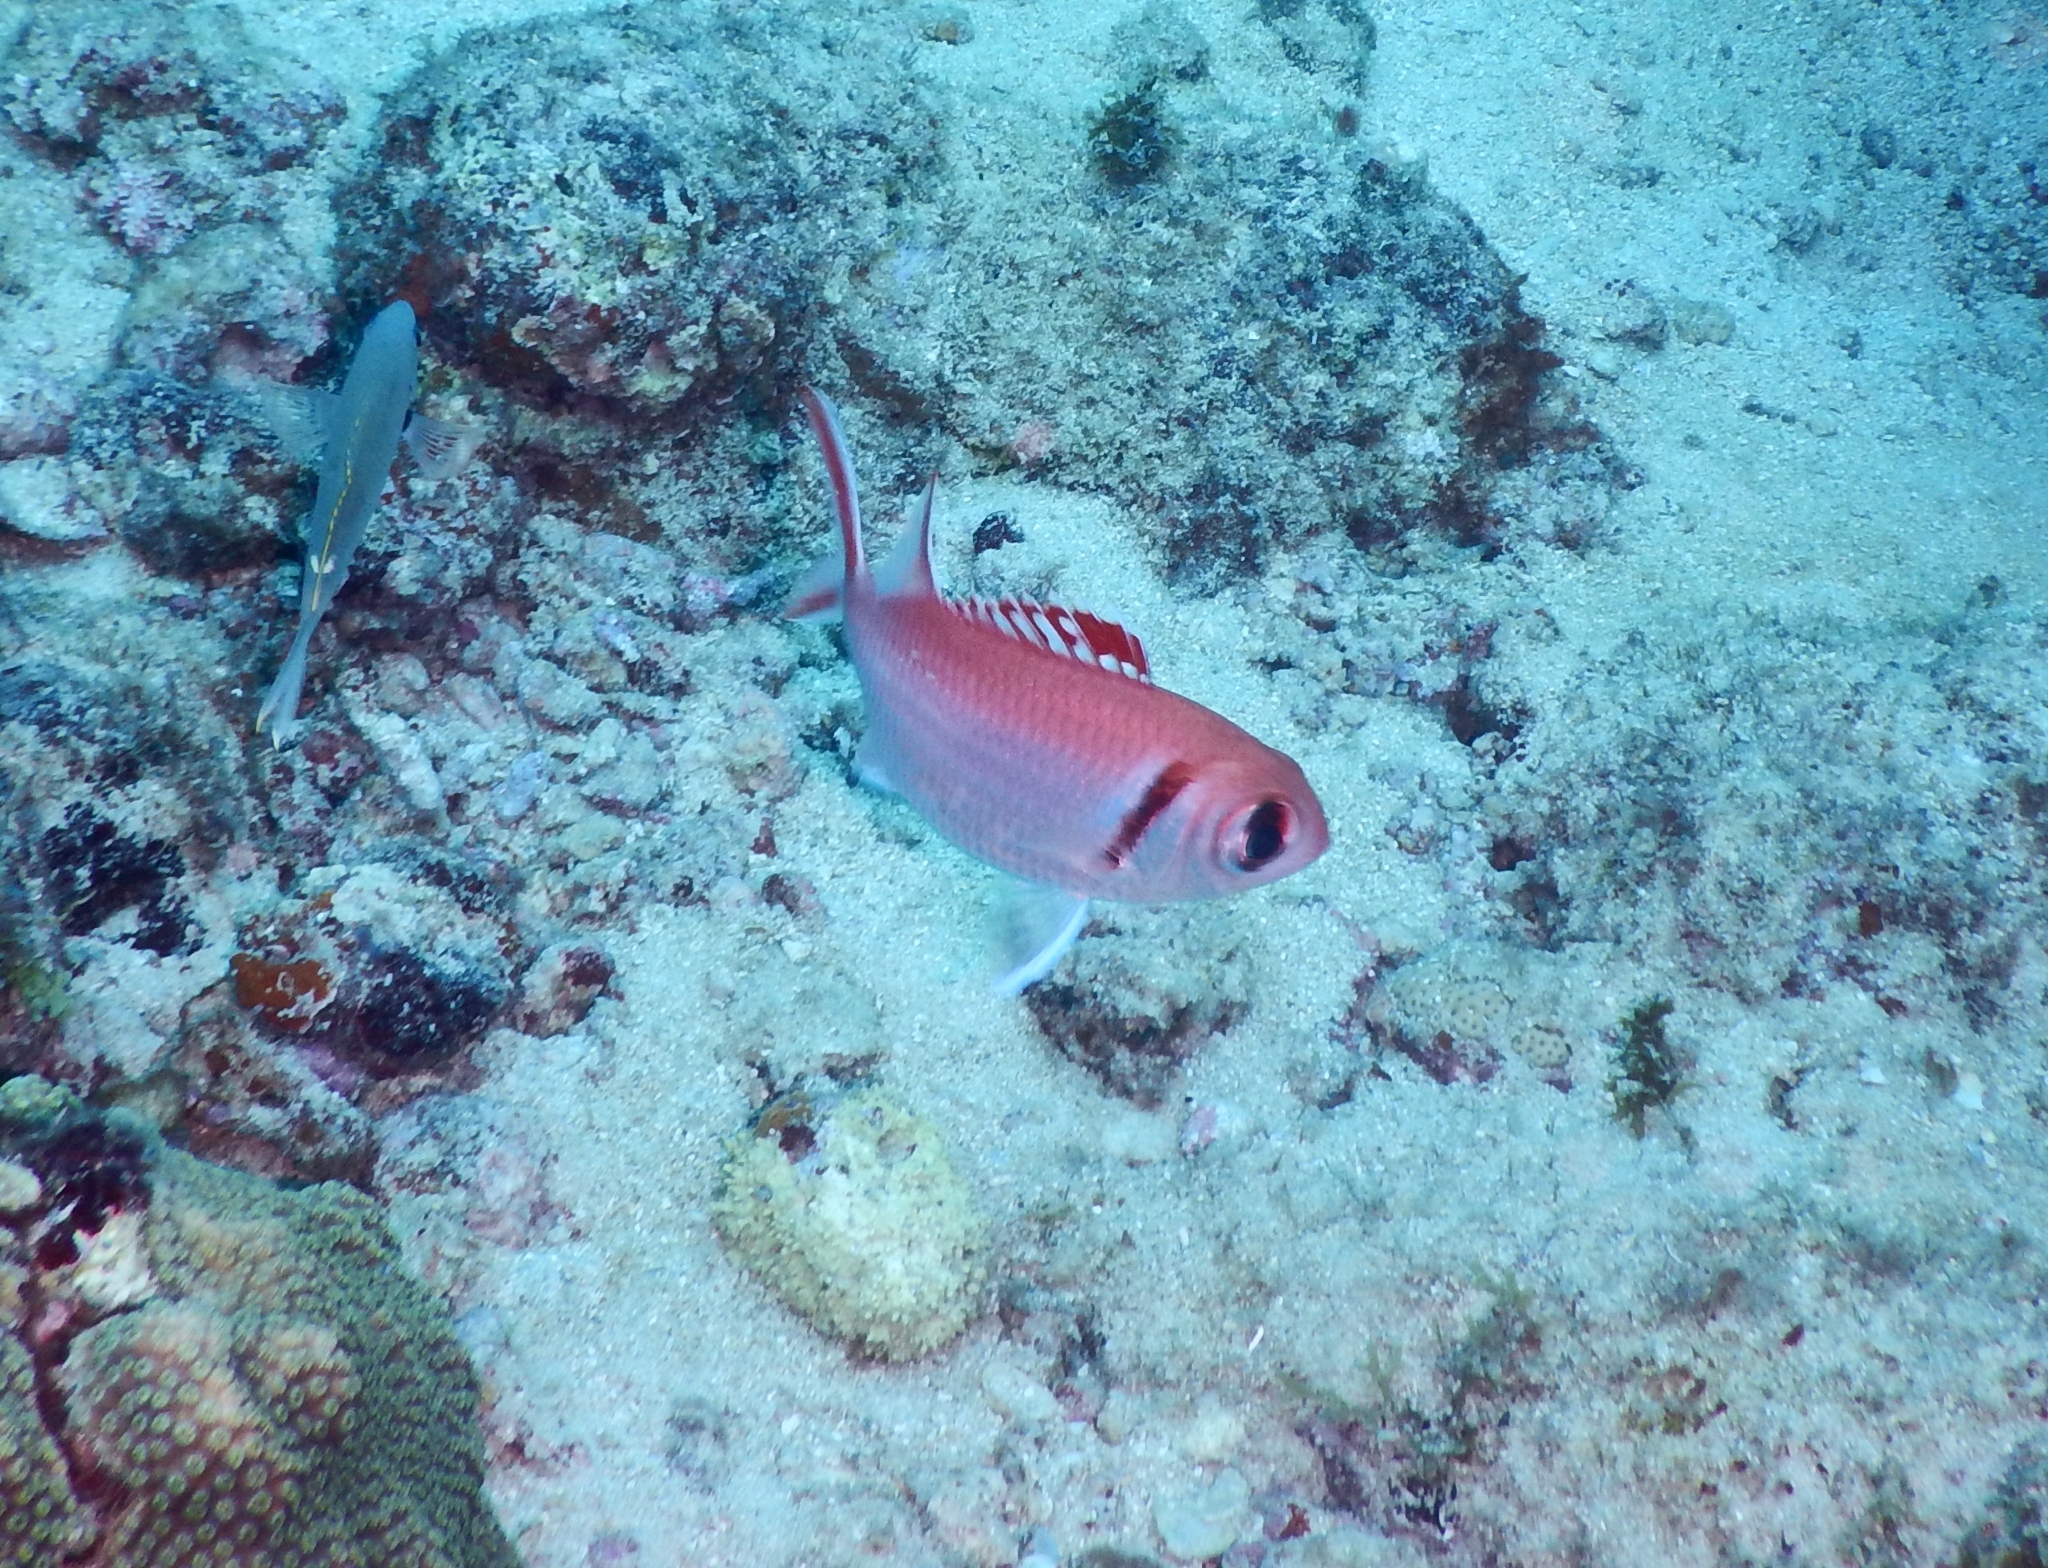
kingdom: Animalia
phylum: Chordata
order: Beryciformes
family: Holocentridae
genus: Myripristis
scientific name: Myripristis jacobus
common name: Blackbar soldierfish
